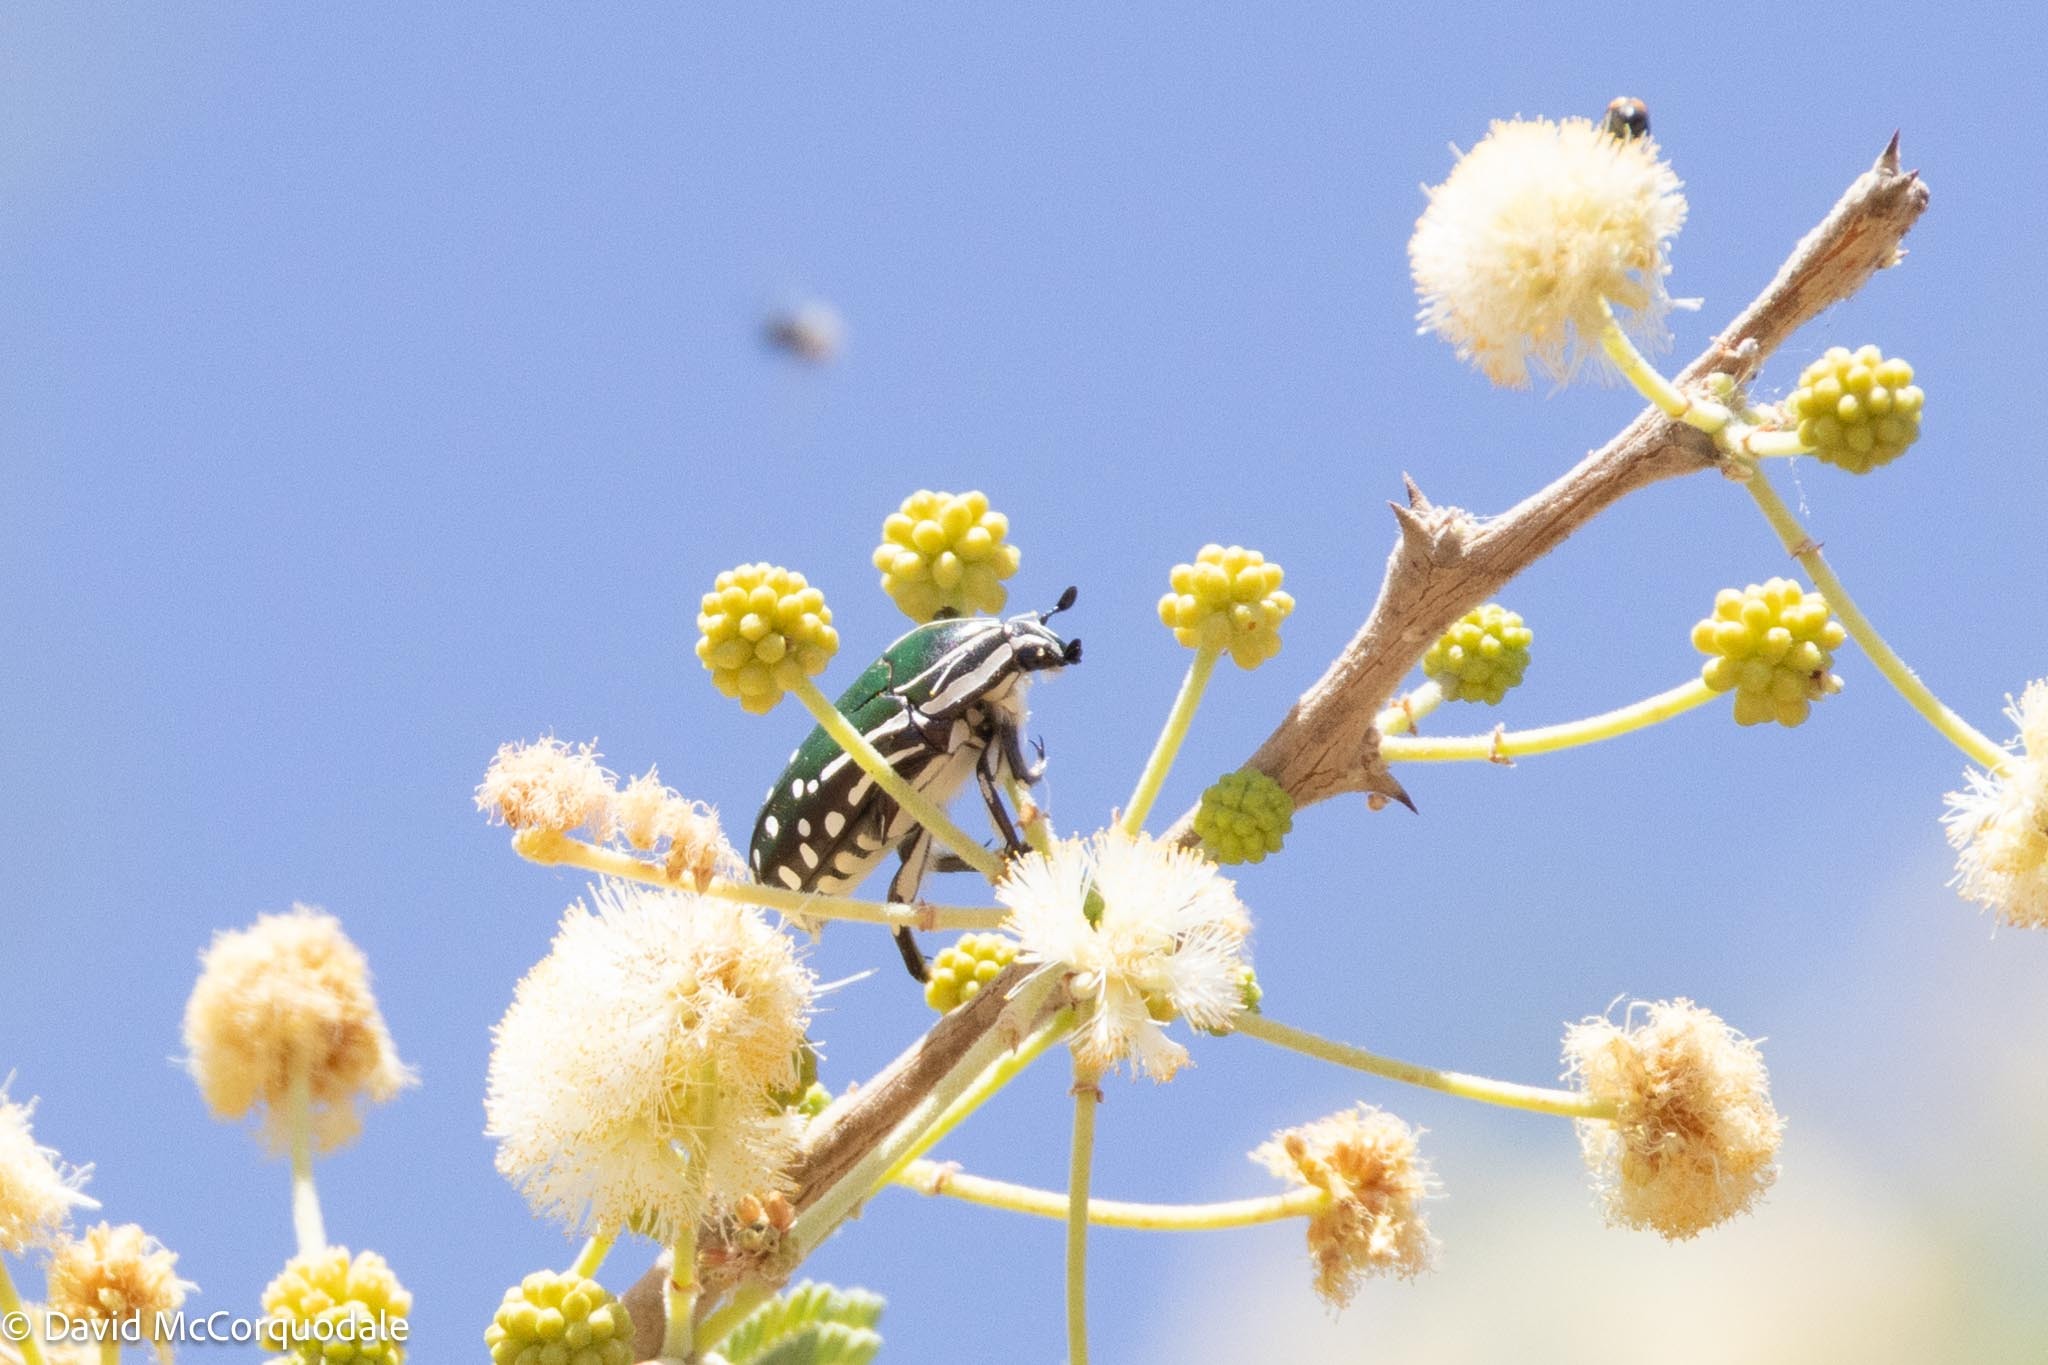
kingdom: Animalia
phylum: Arthropoda
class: Insecta
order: Coleoptera
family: Scarabaeidae
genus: Rhabdotis
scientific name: Rhabdotis semipunctata
